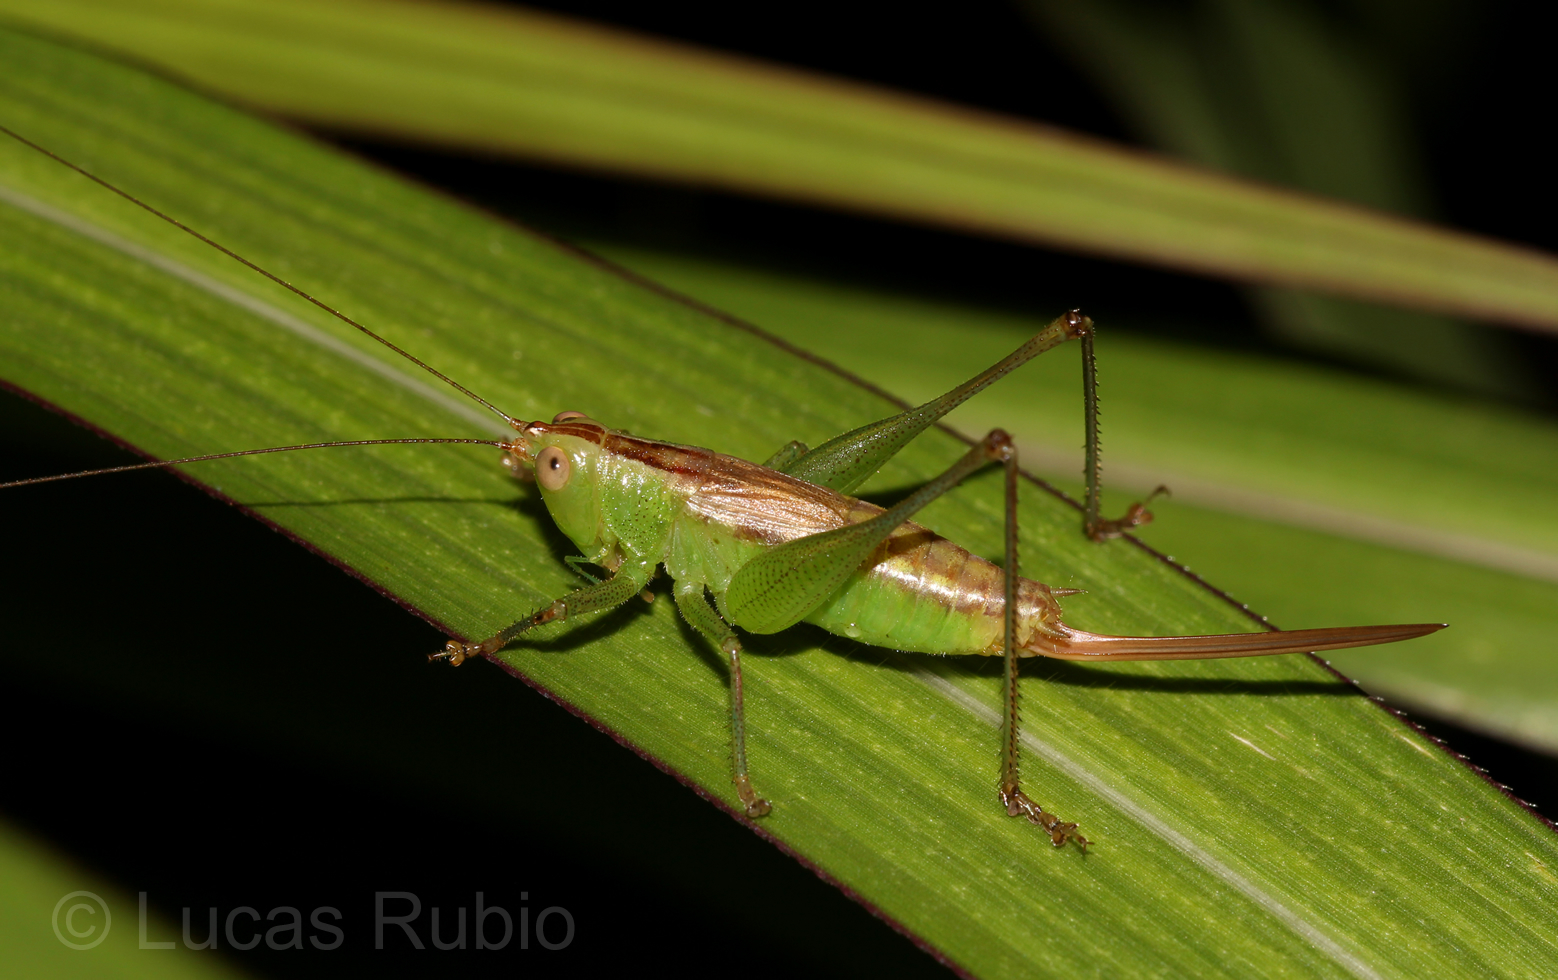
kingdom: Animalia
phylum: Arthropoda
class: Insecta
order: Orthoptera
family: Tettigoniidae
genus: Conocephalus
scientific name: Conocephalus saltator
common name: Katydid
